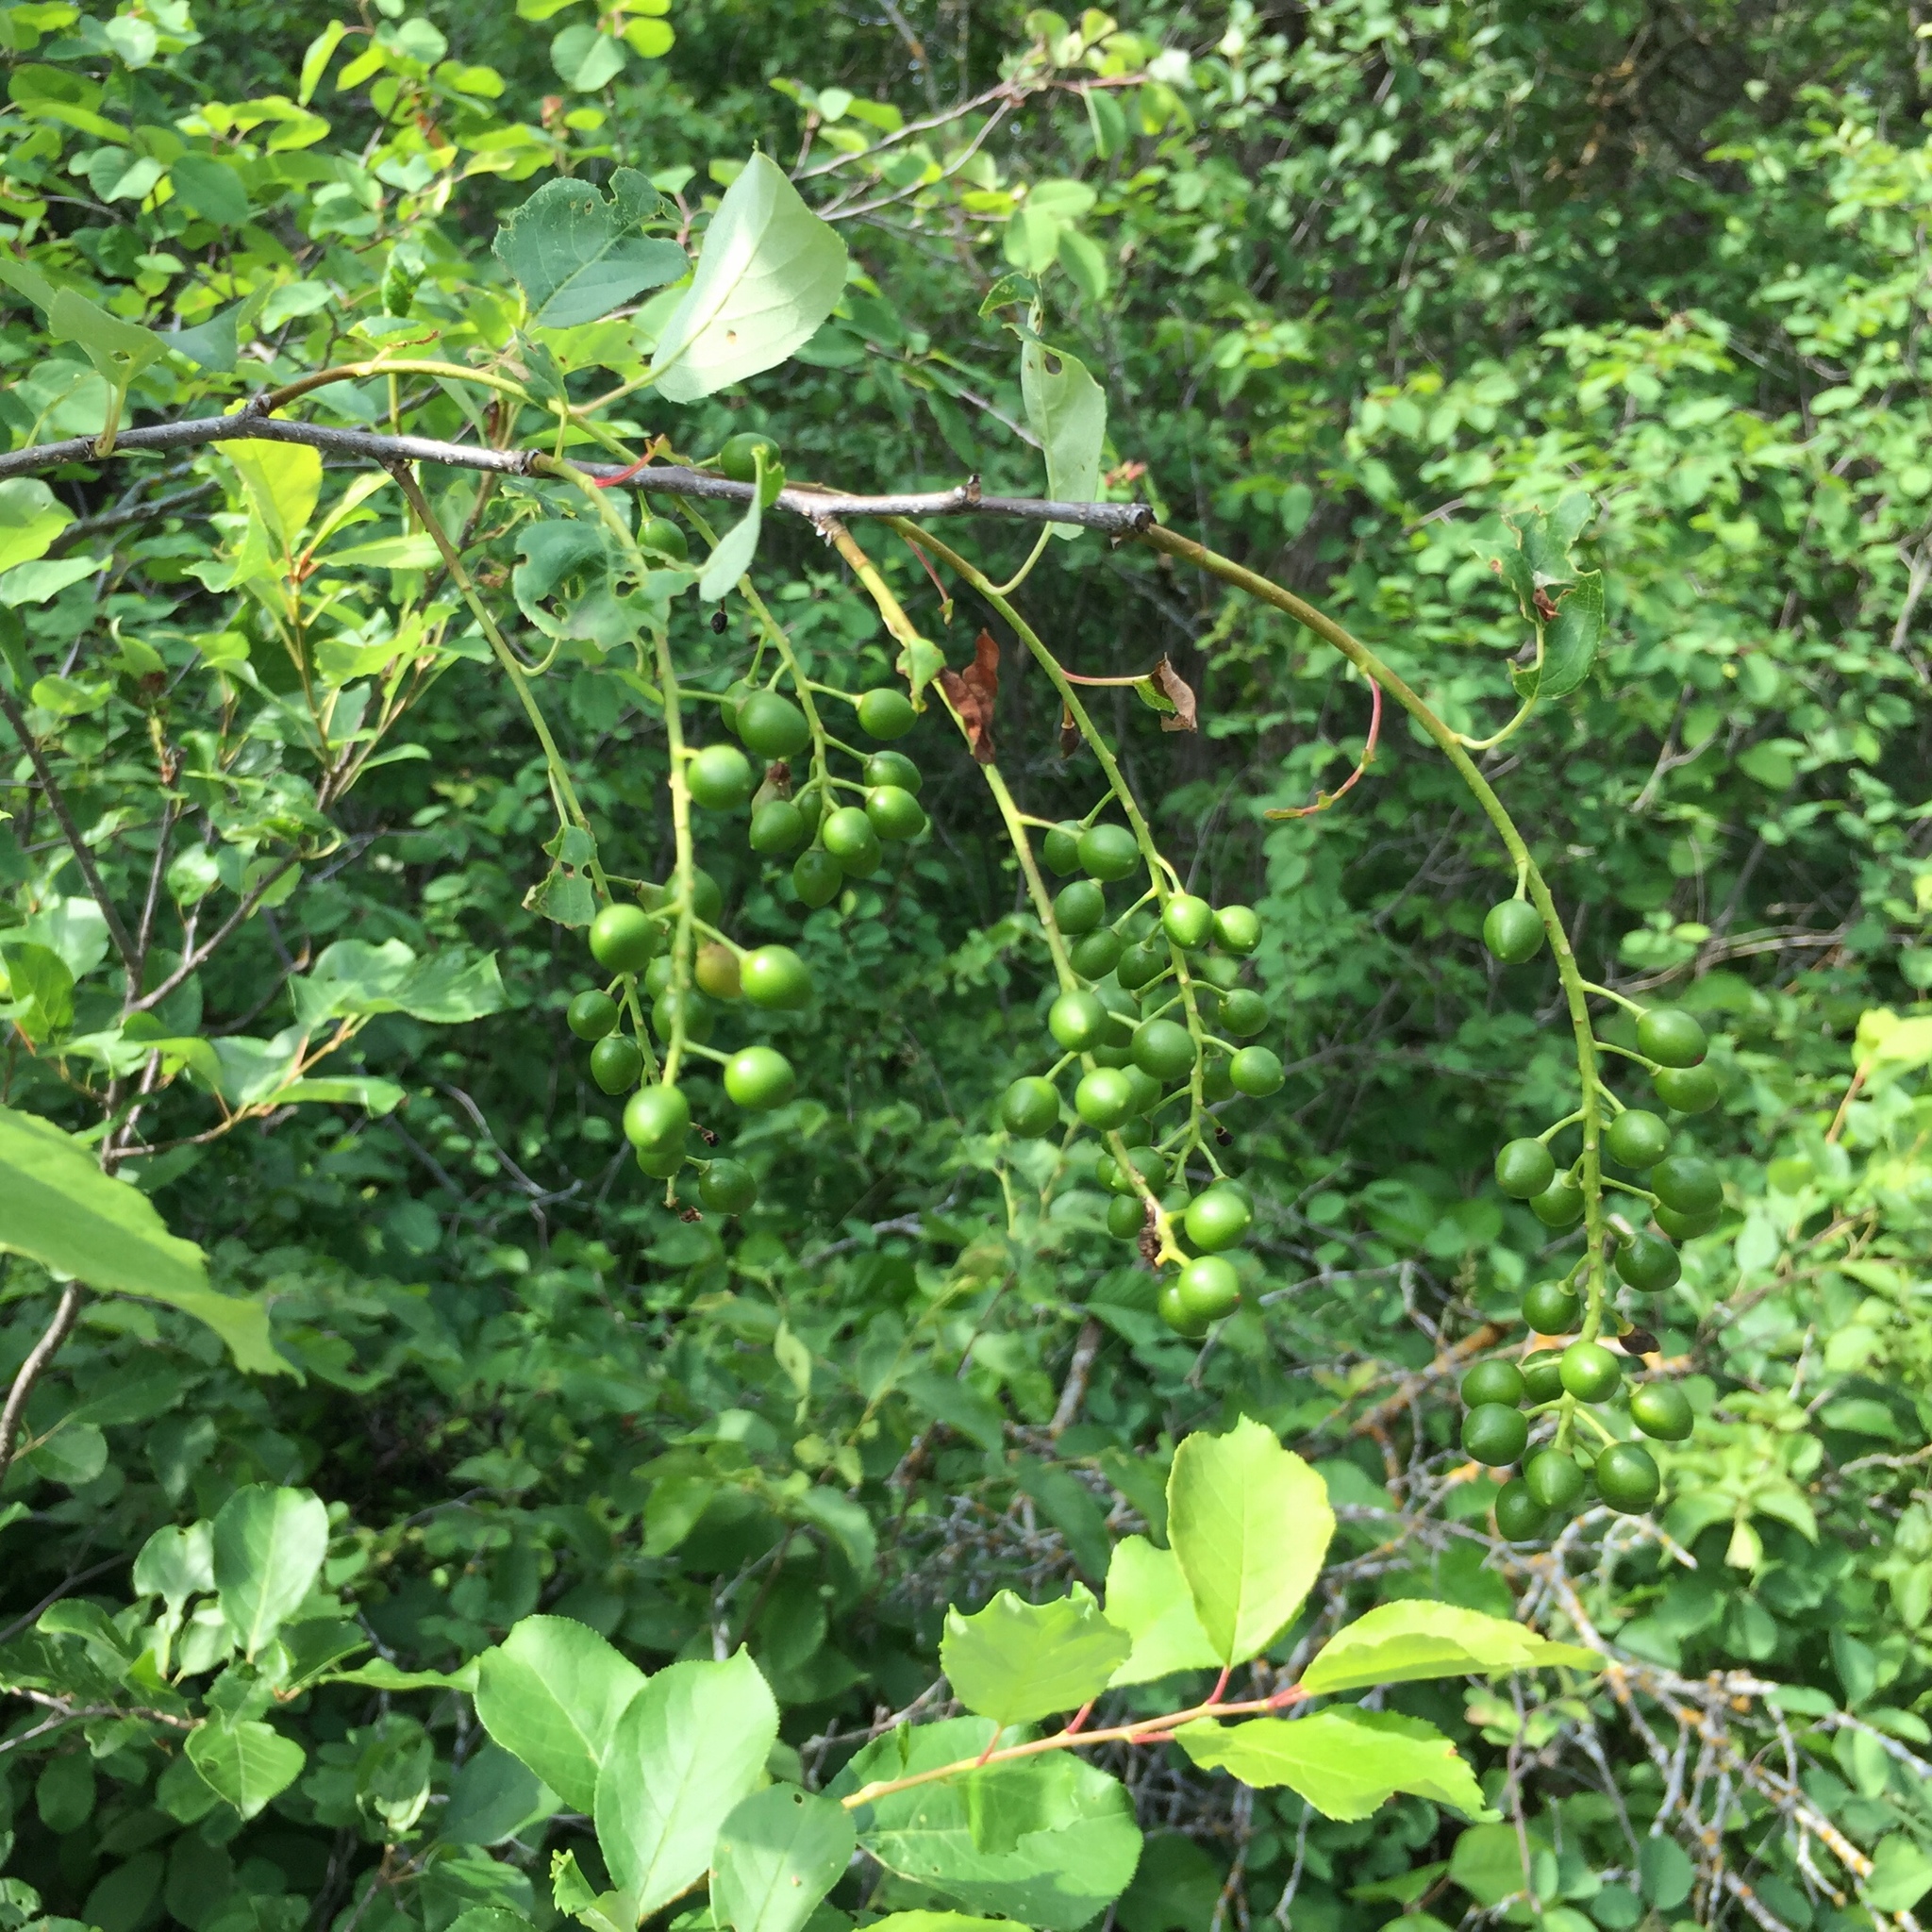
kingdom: Plantae
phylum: Tracheophyta
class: Magnoliopsida
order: Rosales
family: Rosaceae
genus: Prunus
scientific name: Prunus virginiana
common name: Chokecherry
